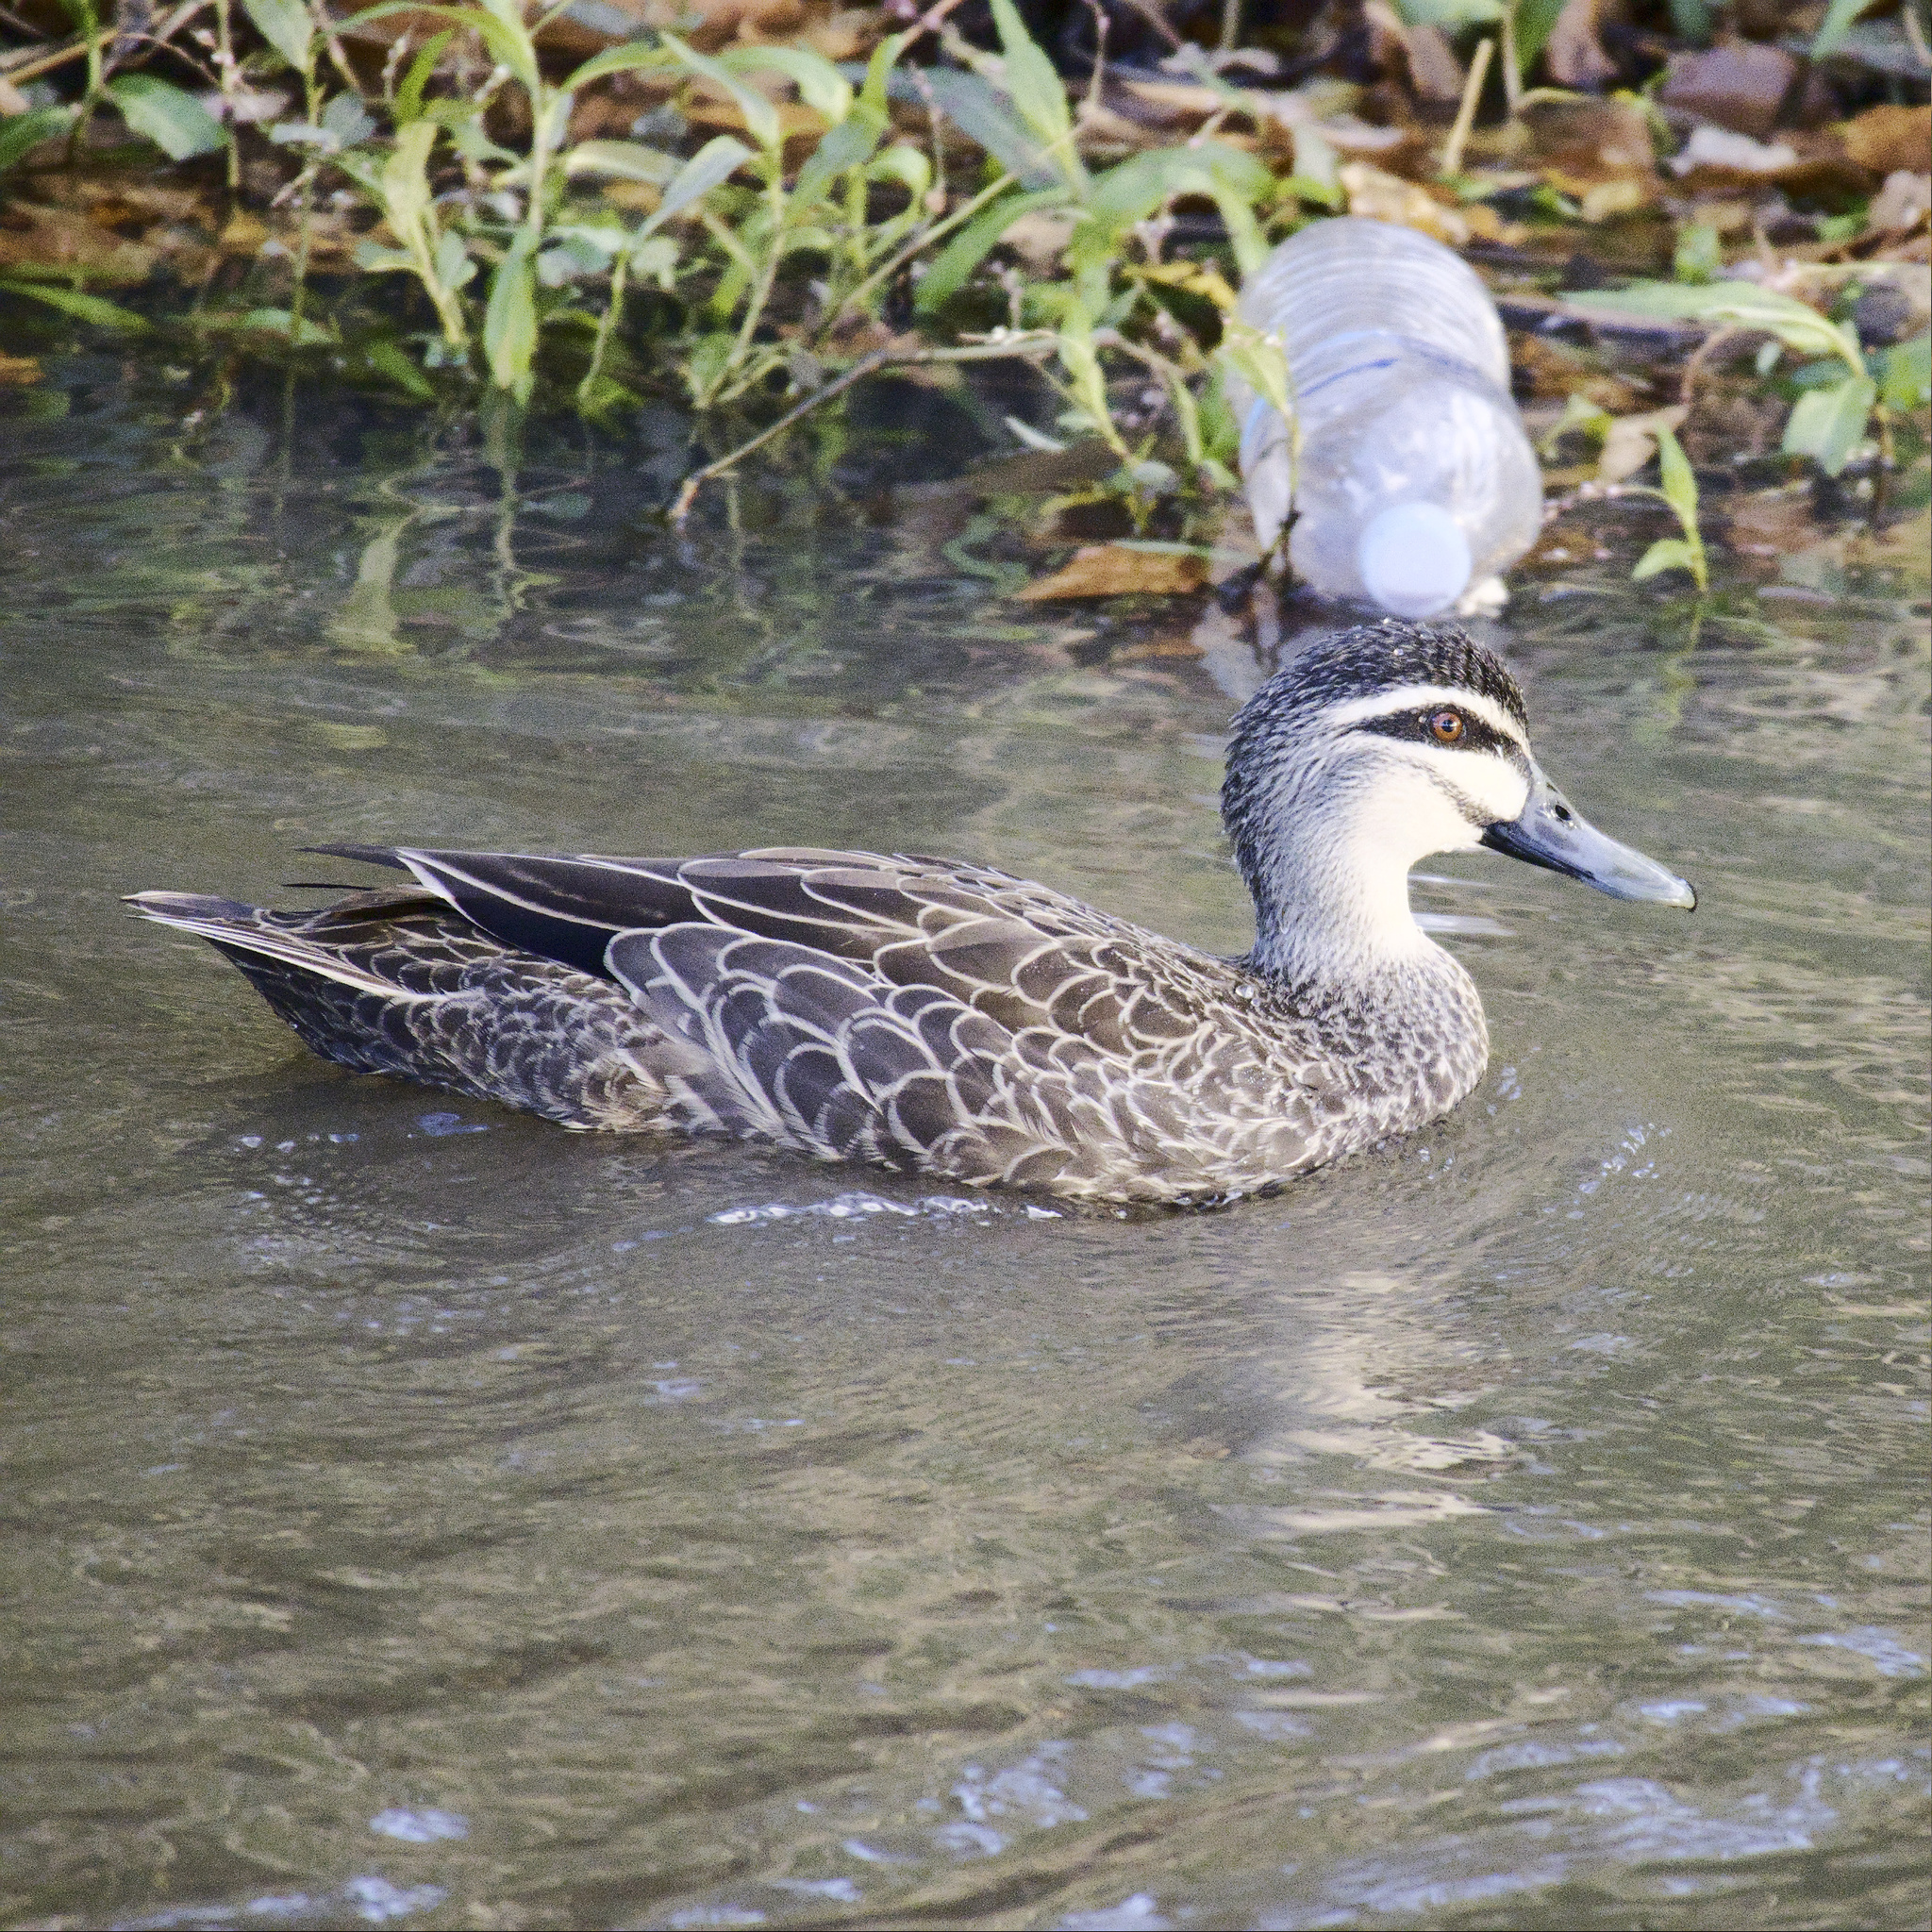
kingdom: Animalia
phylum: Chordata
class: Aves
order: Anseriformes
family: Anatidae
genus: Anas
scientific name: Anas superciliosa
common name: Pacific black duck
